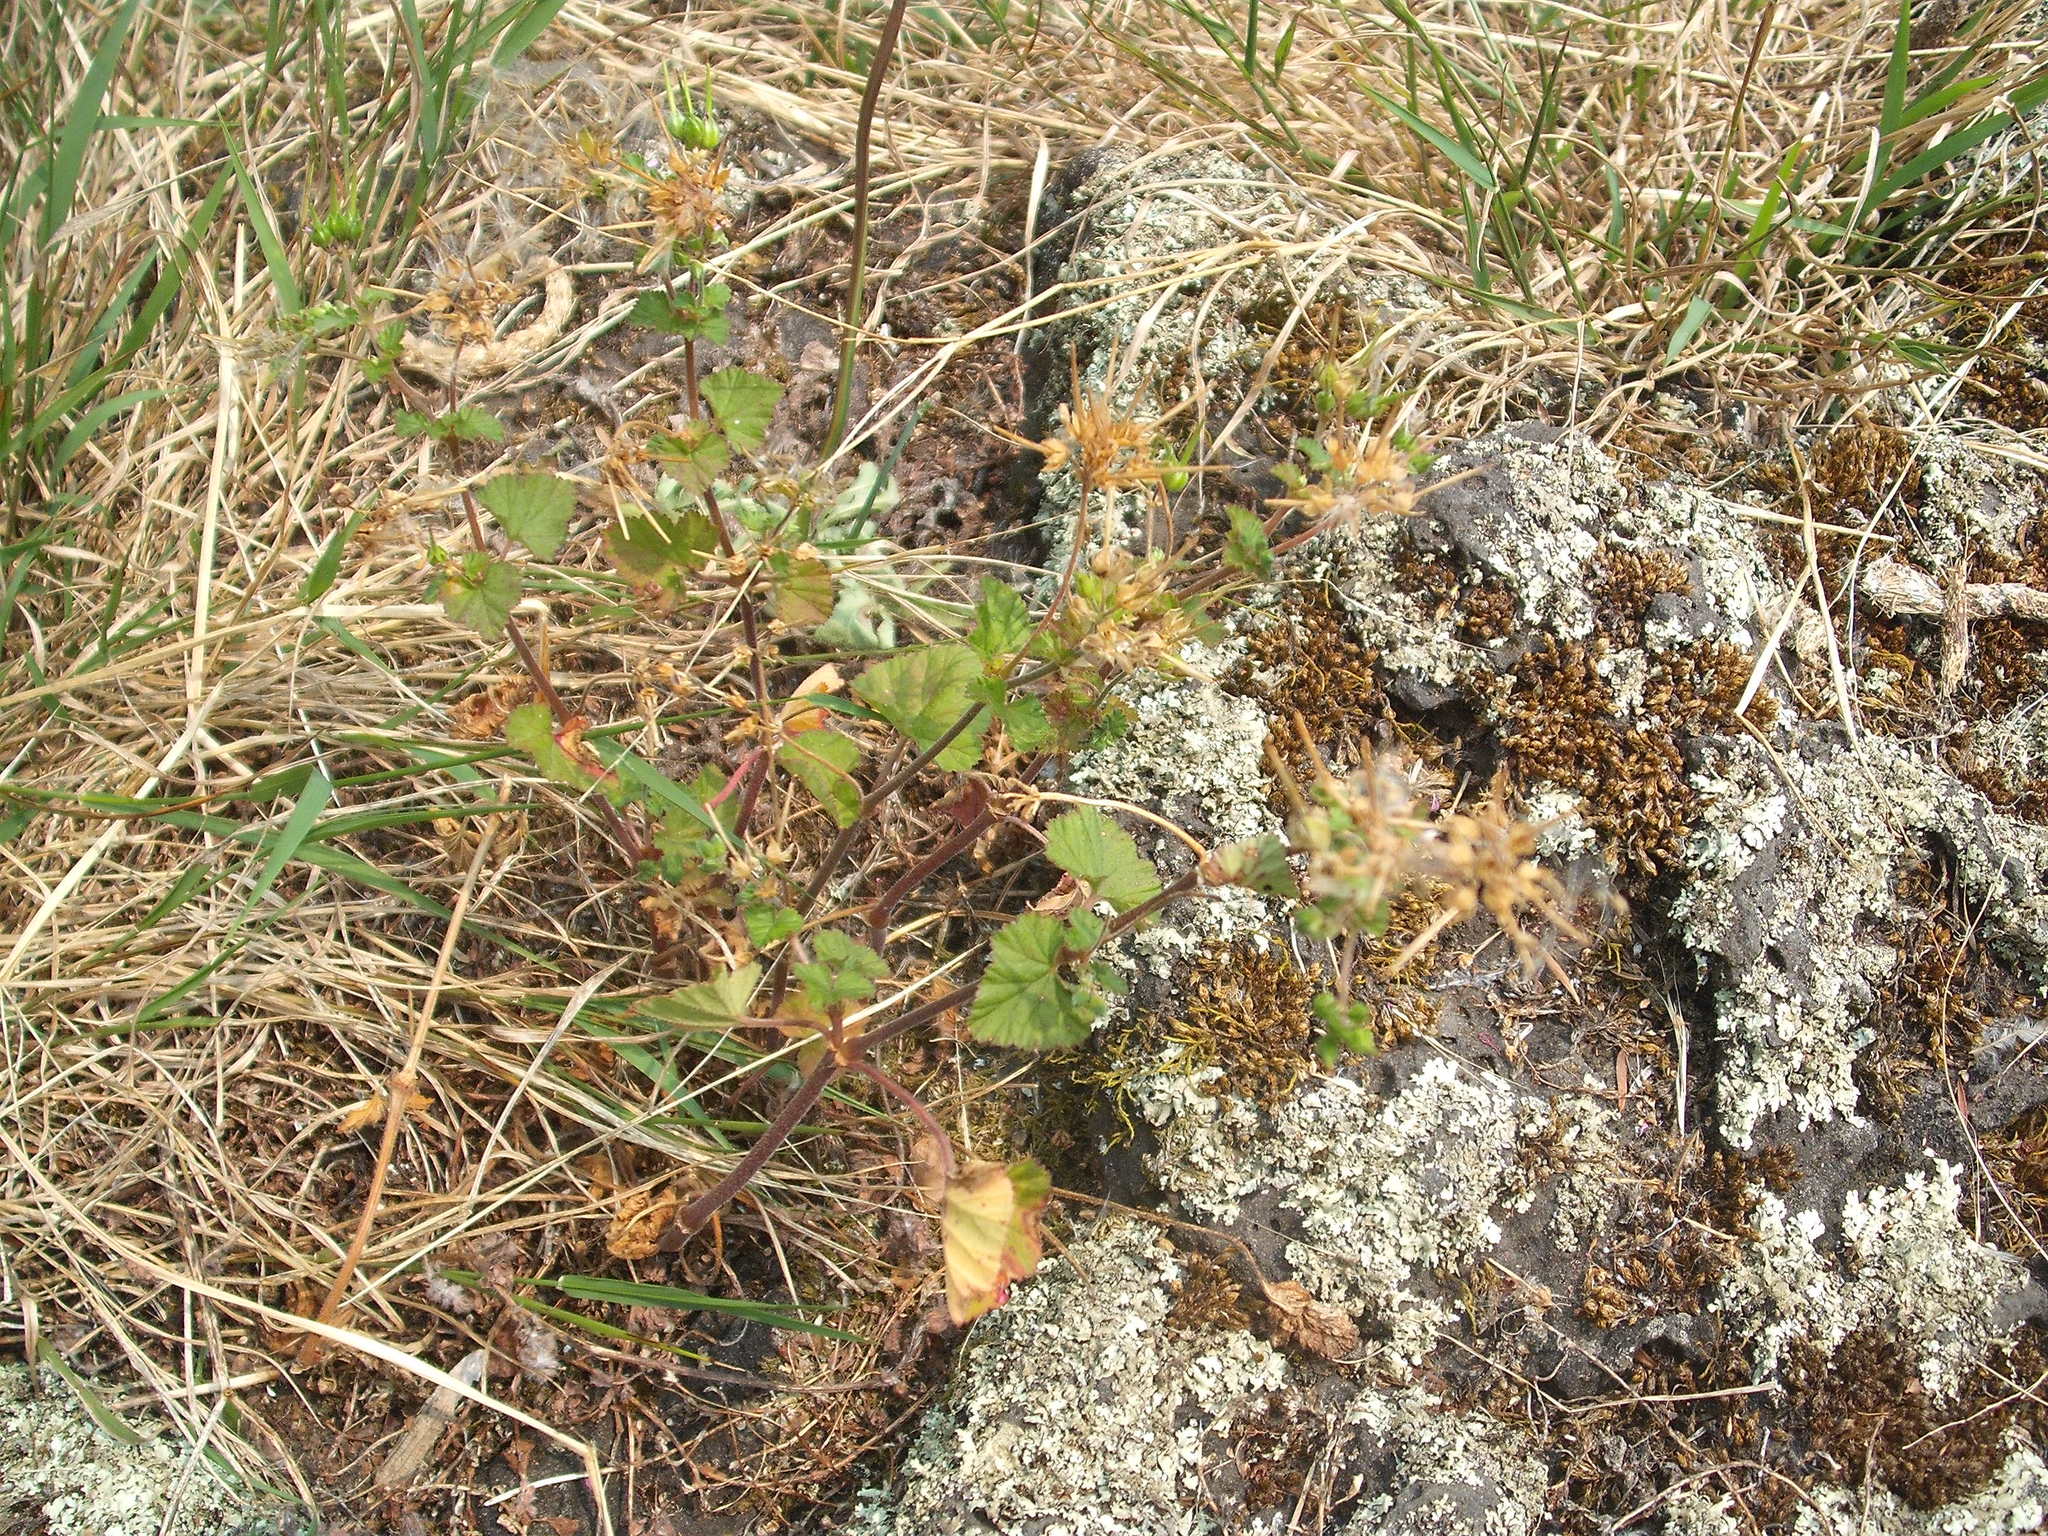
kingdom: Plantae
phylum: Tracheophyta
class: Magnoliopsida
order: Geraniales
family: Geraniaceae
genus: Pelargonium
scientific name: Pelargonium inodorum
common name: Kopata geranium
